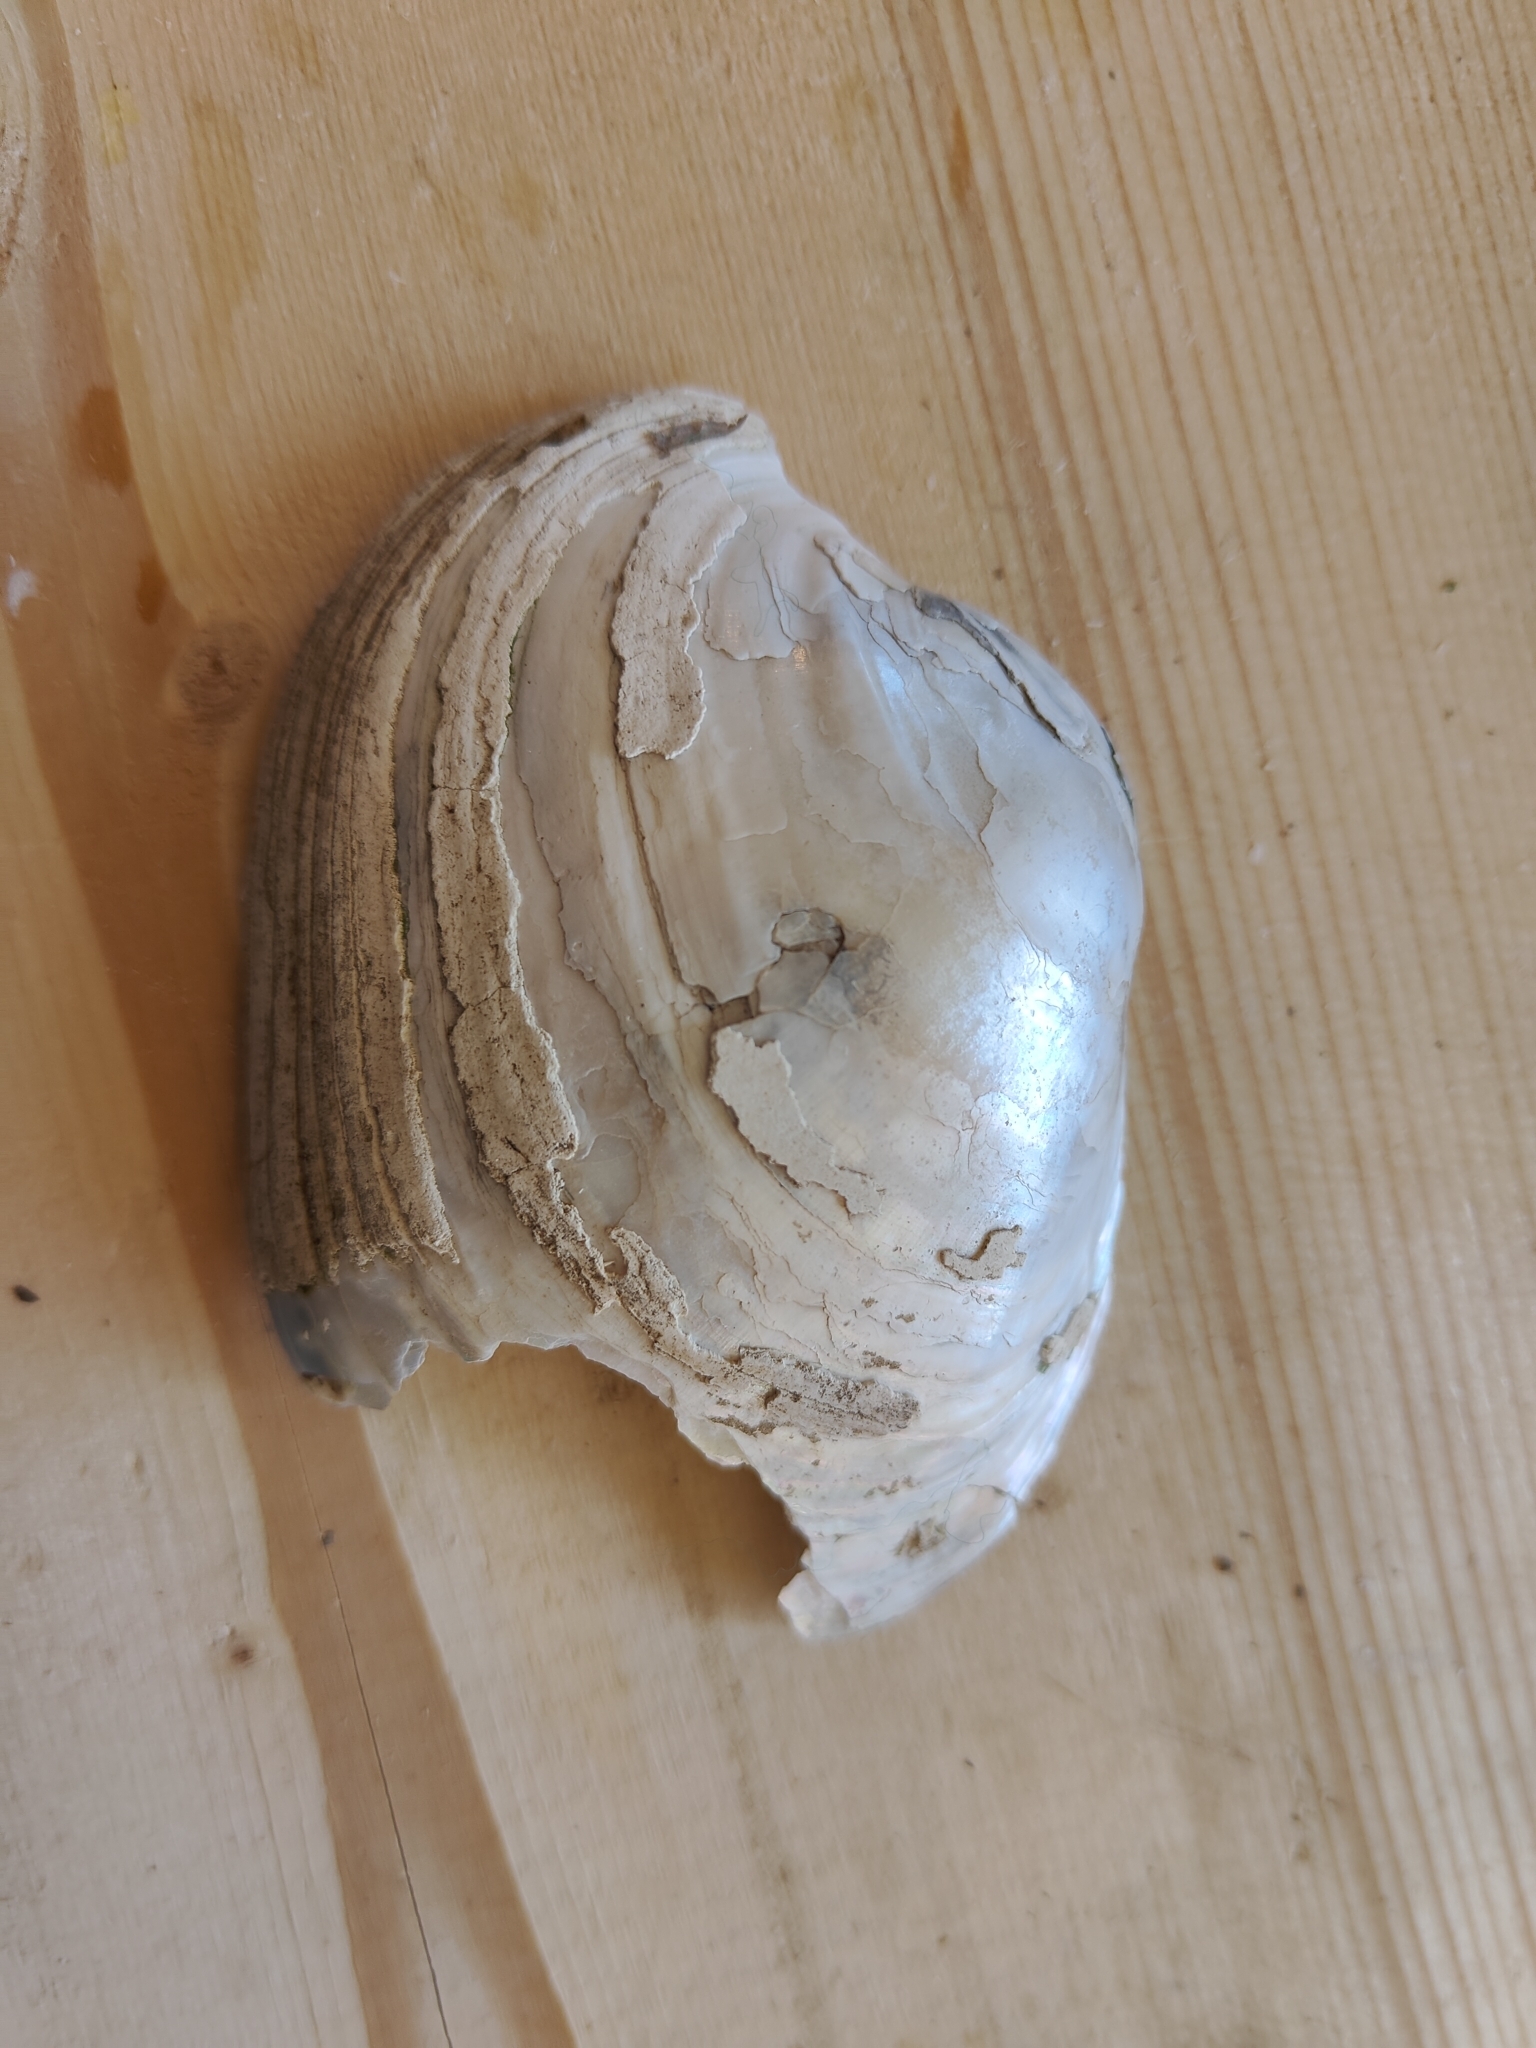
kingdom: Animalia
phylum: Mollusca
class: Bivalvia
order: Unionida
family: Unionidae
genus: Lampsilis
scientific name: Lampsilis cardium
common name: Plain pocketbook
